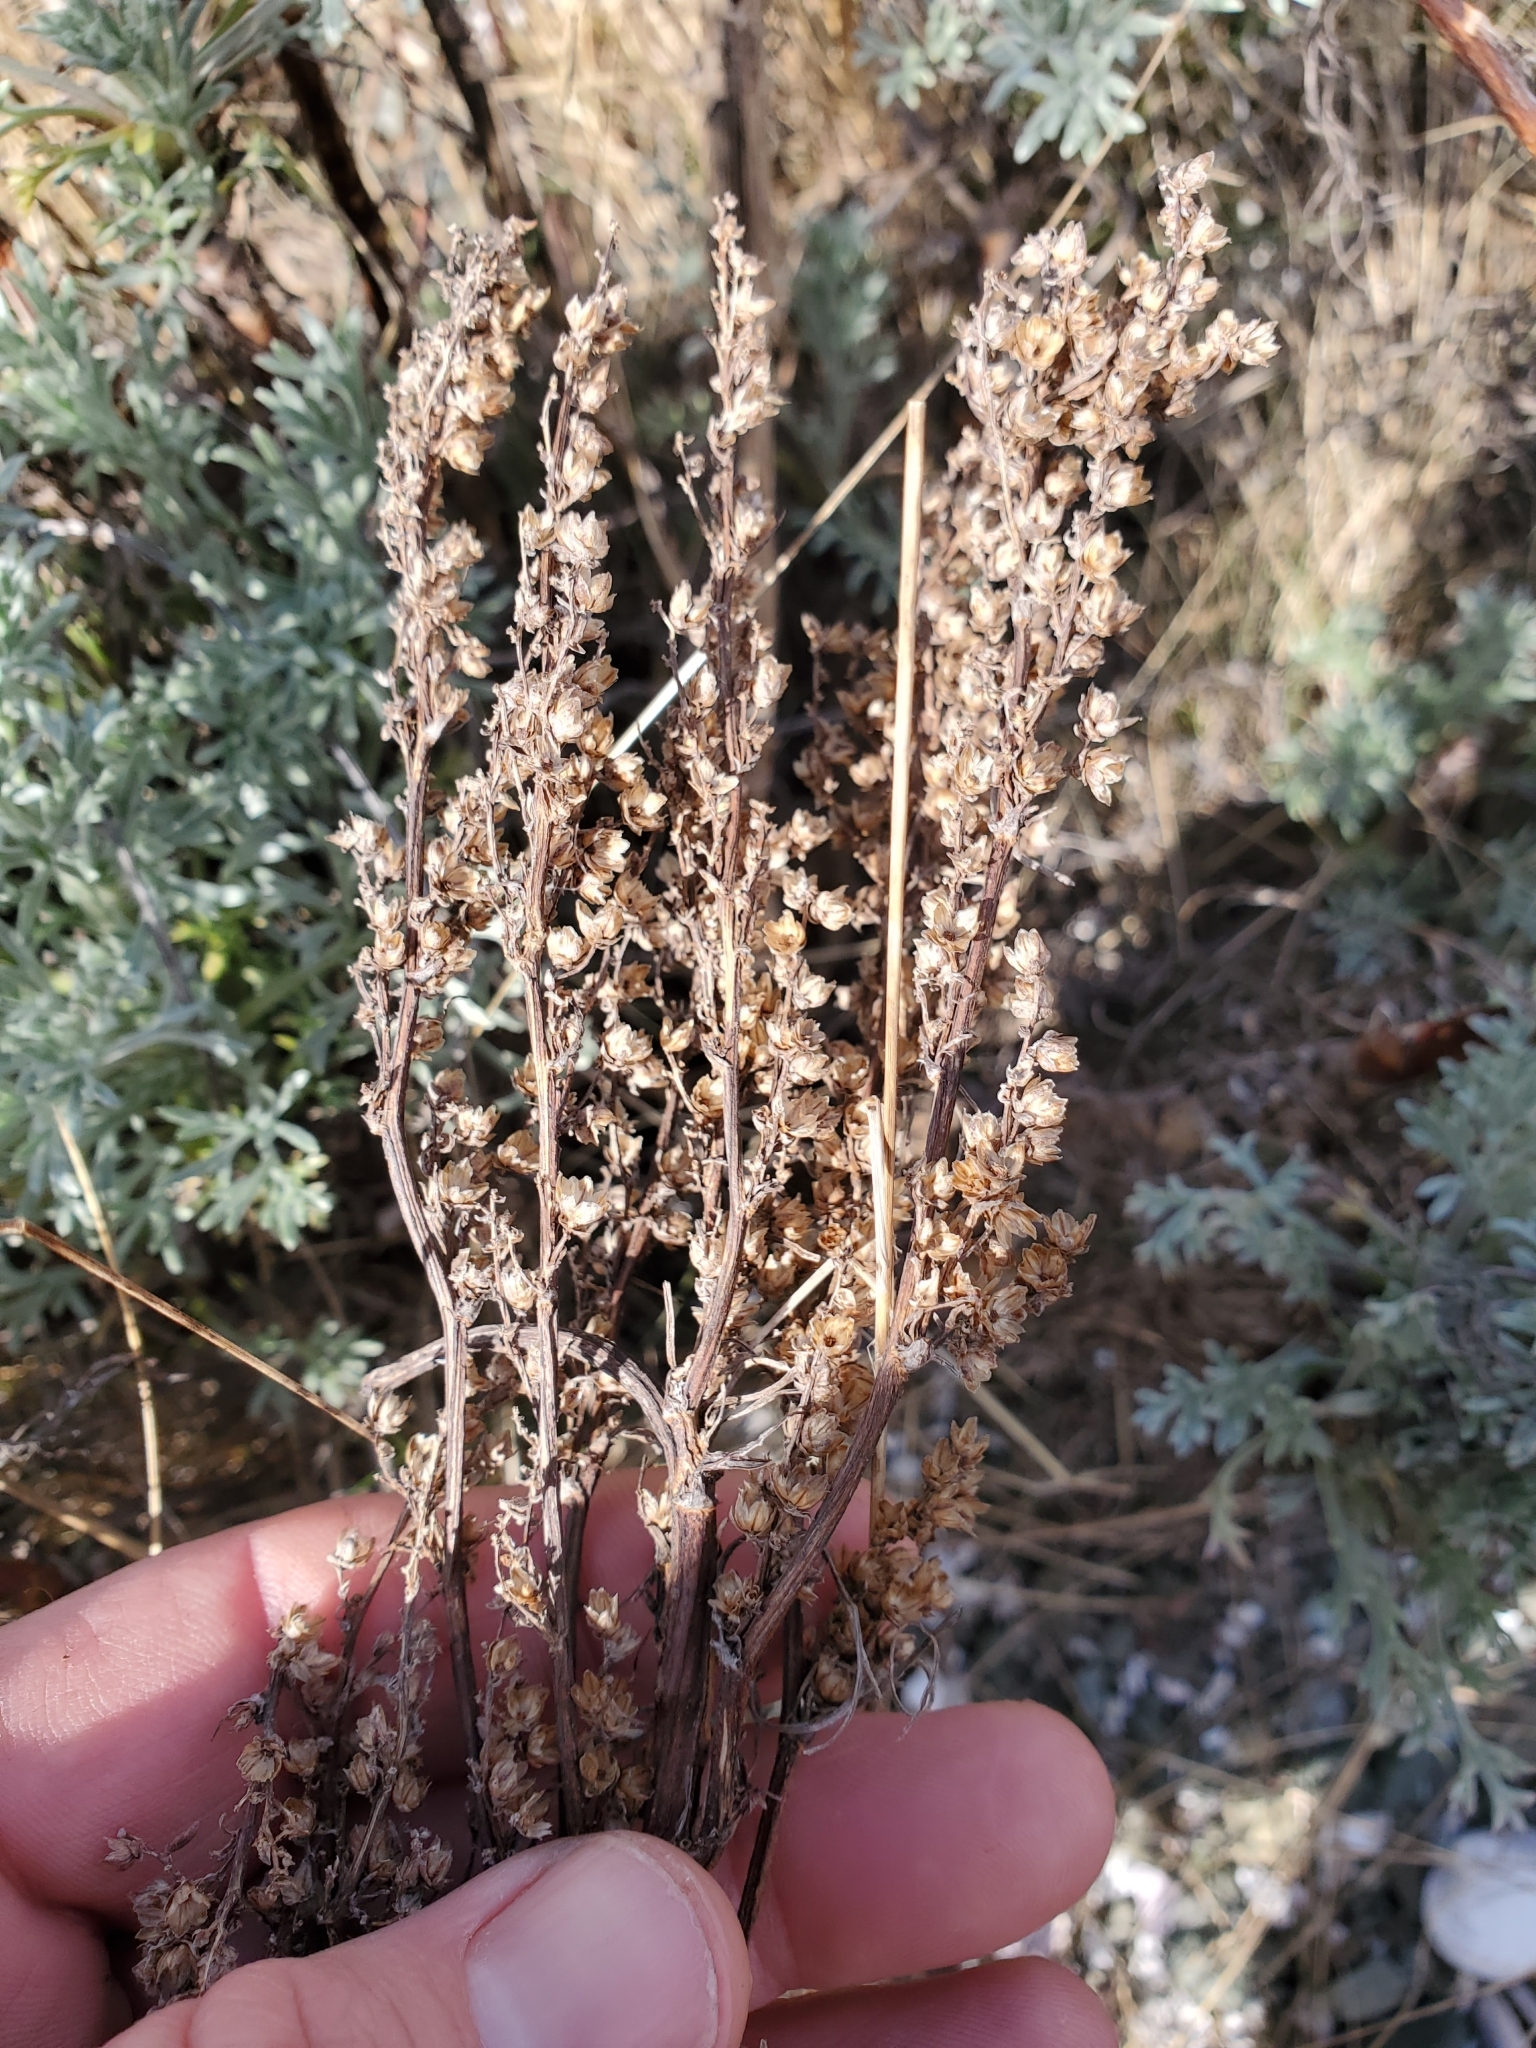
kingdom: Plantae
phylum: Tracheophyta
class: Magnoliopsida
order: Asterales
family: Asteraceae
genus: Artemisia
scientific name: Artemisia campestris
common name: Field wormwood
